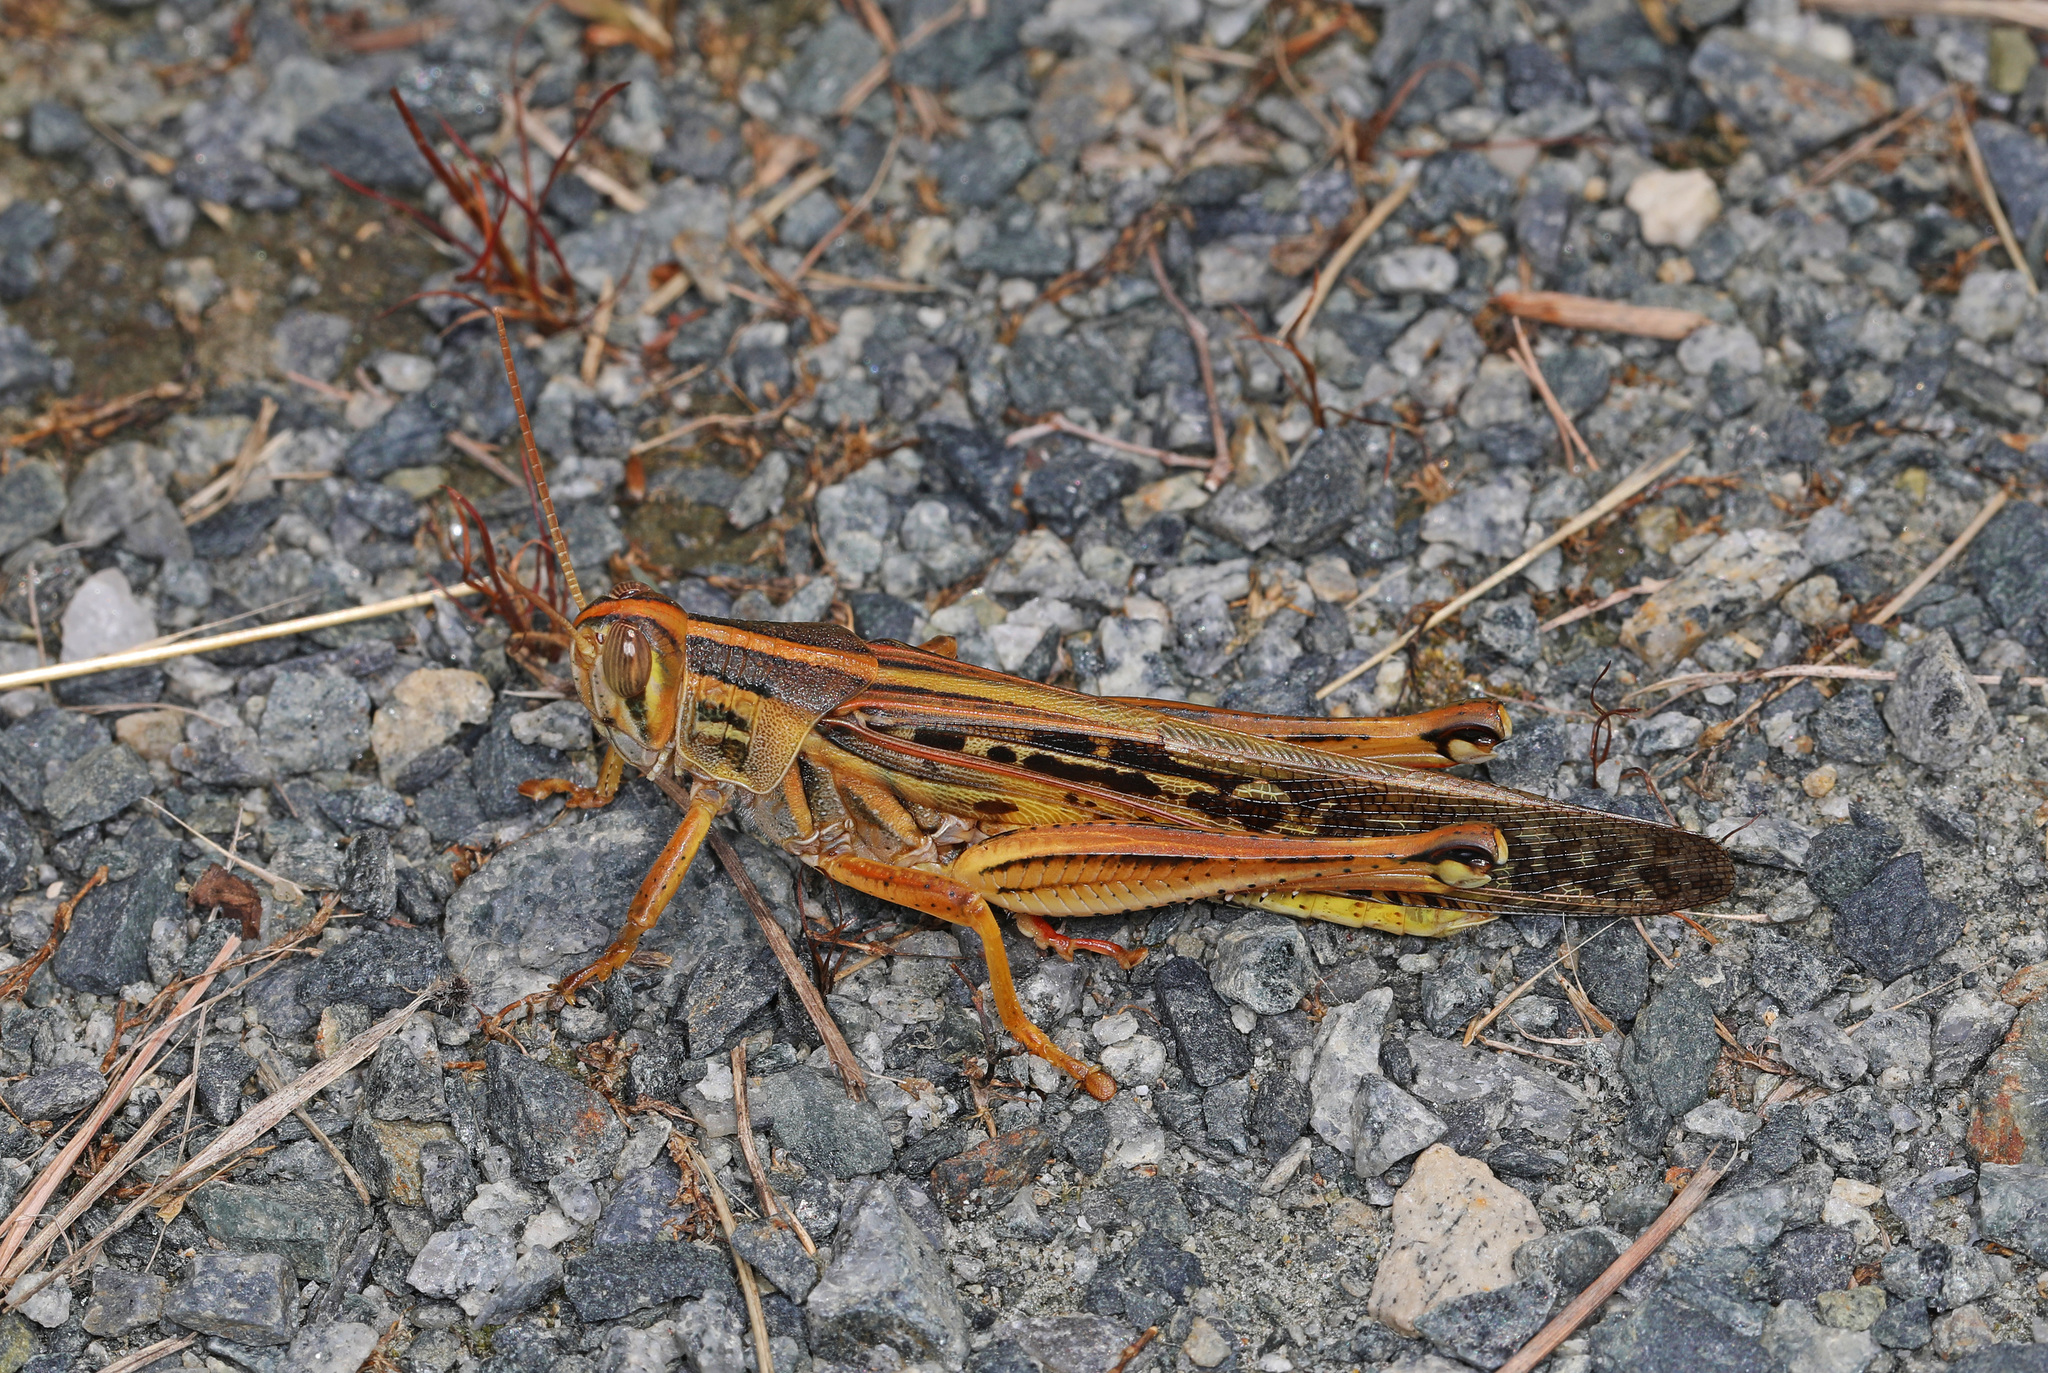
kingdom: Animalia
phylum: Arthropoda
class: Insecta
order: Orthoptera
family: Acrididae
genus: Schistocerca
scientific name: Schistocerca americana
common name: American bird locust
